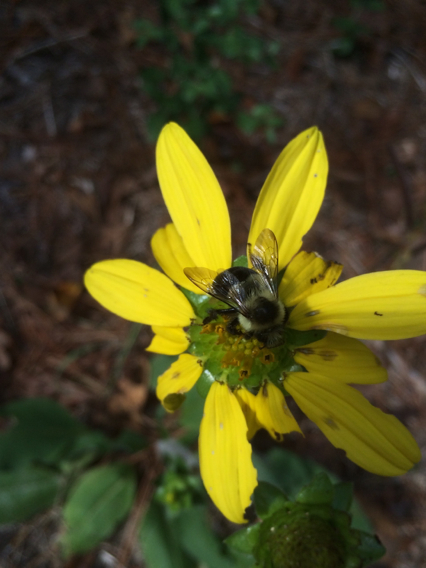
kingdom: Animalia
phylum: Arthropoda
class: Insecta
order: Hymenoptera
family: Apidae
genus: Bombus
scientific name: Bombus impatiens
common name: Common eastern bumble bee
